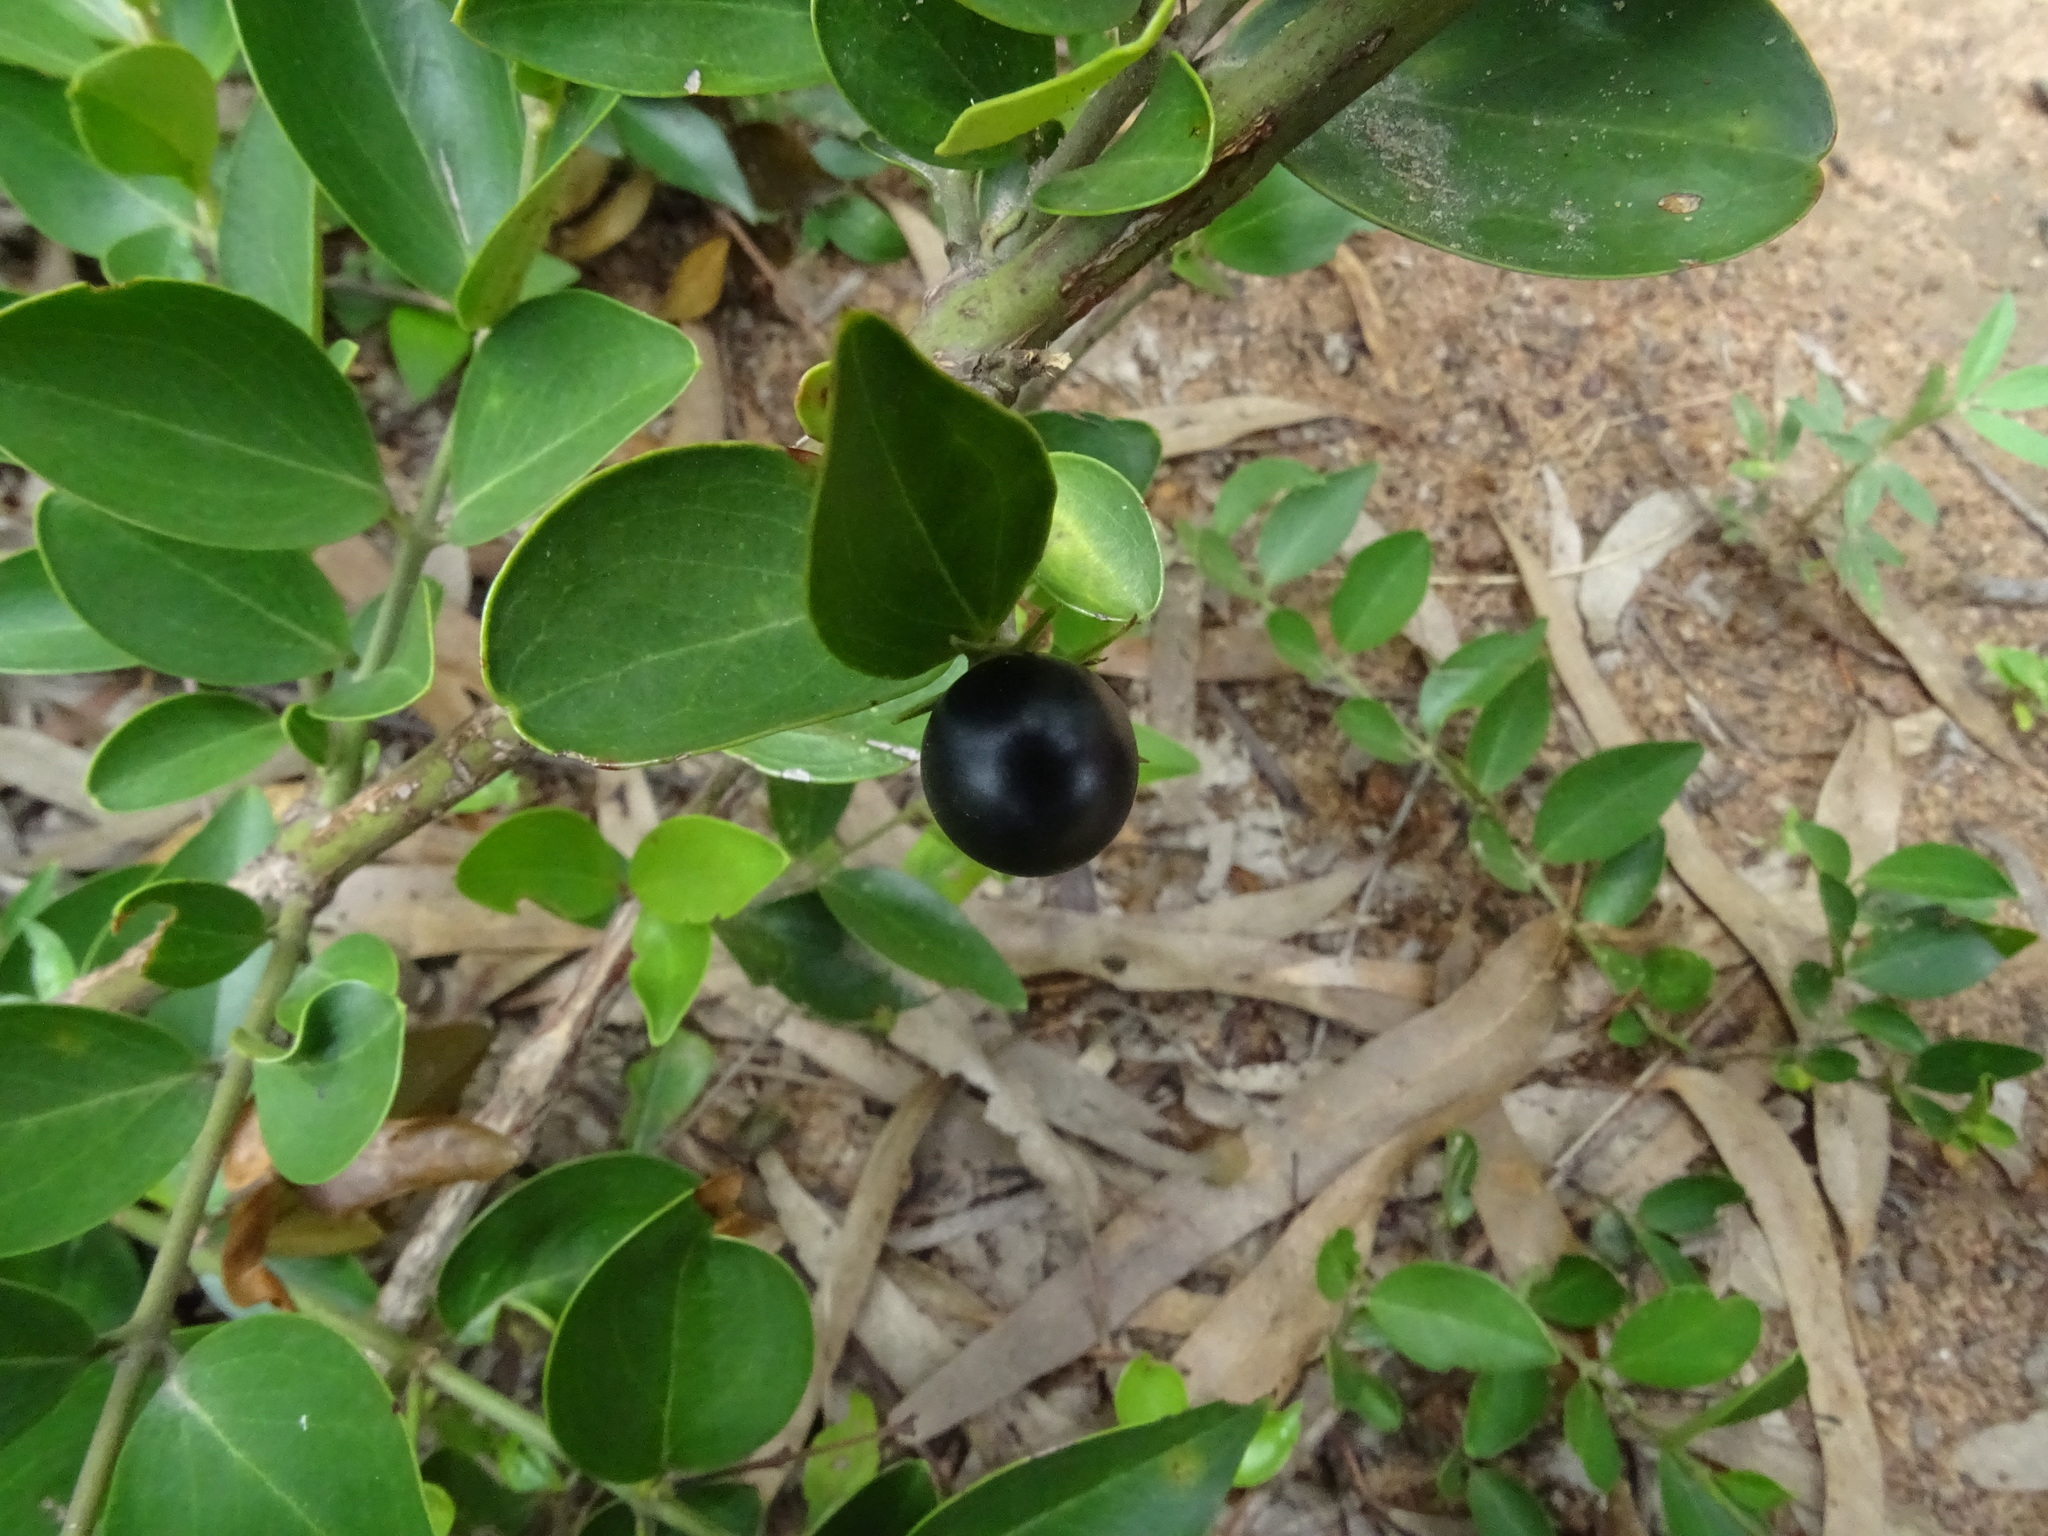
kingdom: Plantae
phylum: Tracheophyta
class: Magnoliopsida
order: Lamiales
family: Oleaceae
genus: Jasminum
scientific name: Jasminum cuspidatum
